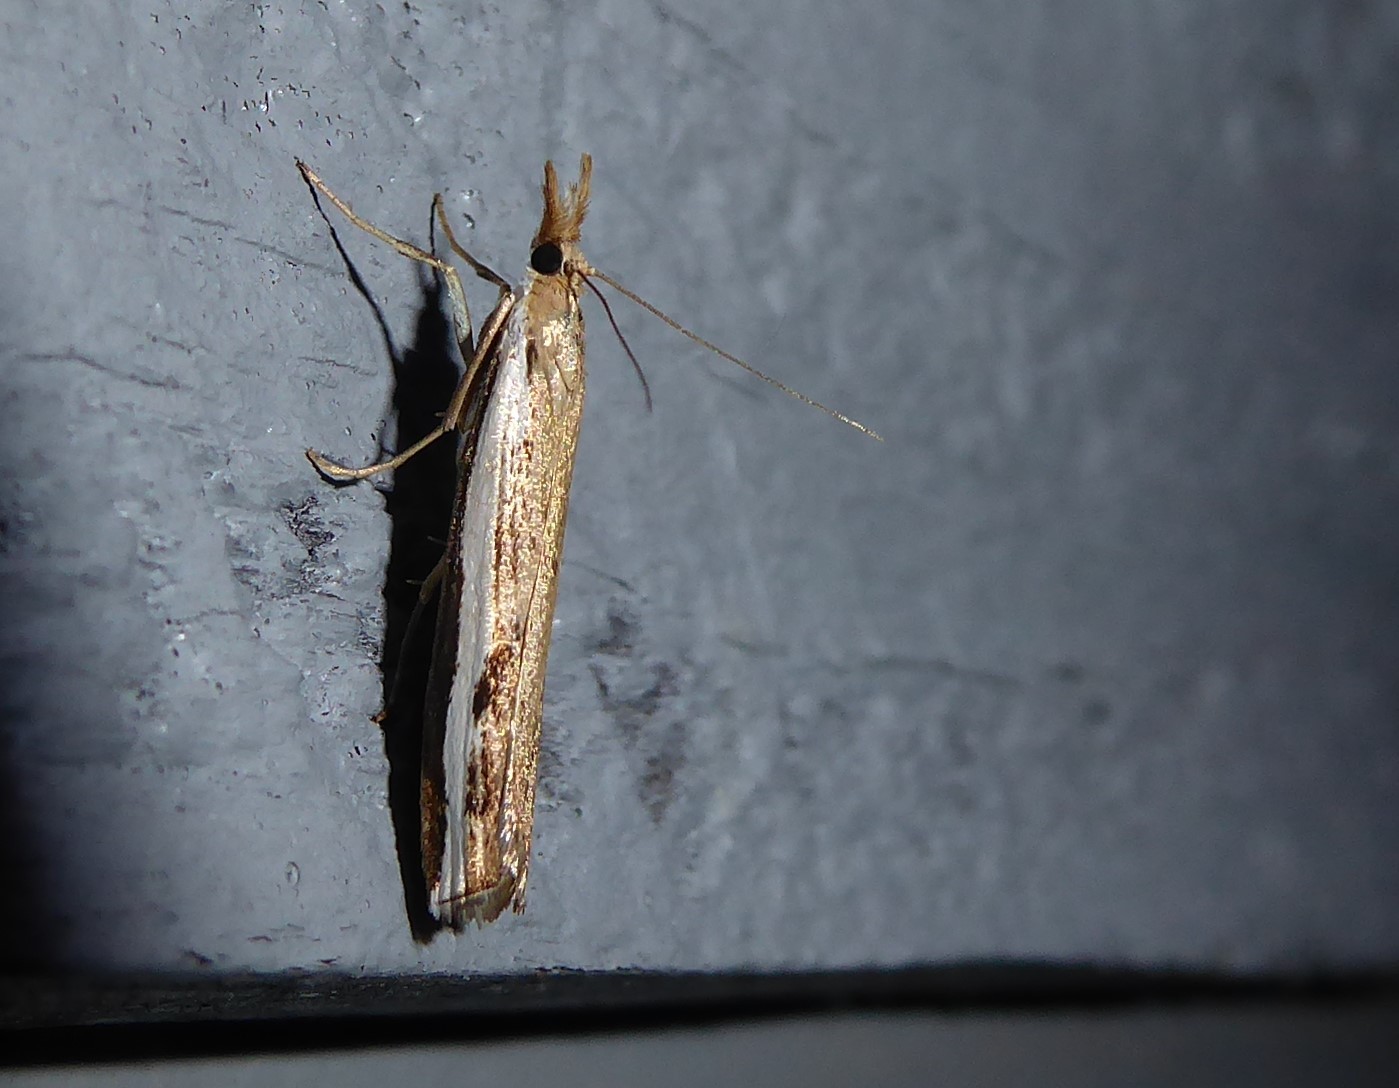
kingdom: Animalia
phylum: Arthropoda
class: Insecta
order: Lepidoptera
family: Crambidae
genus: Orocrambus
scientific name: Orocrambus flexuosellus
